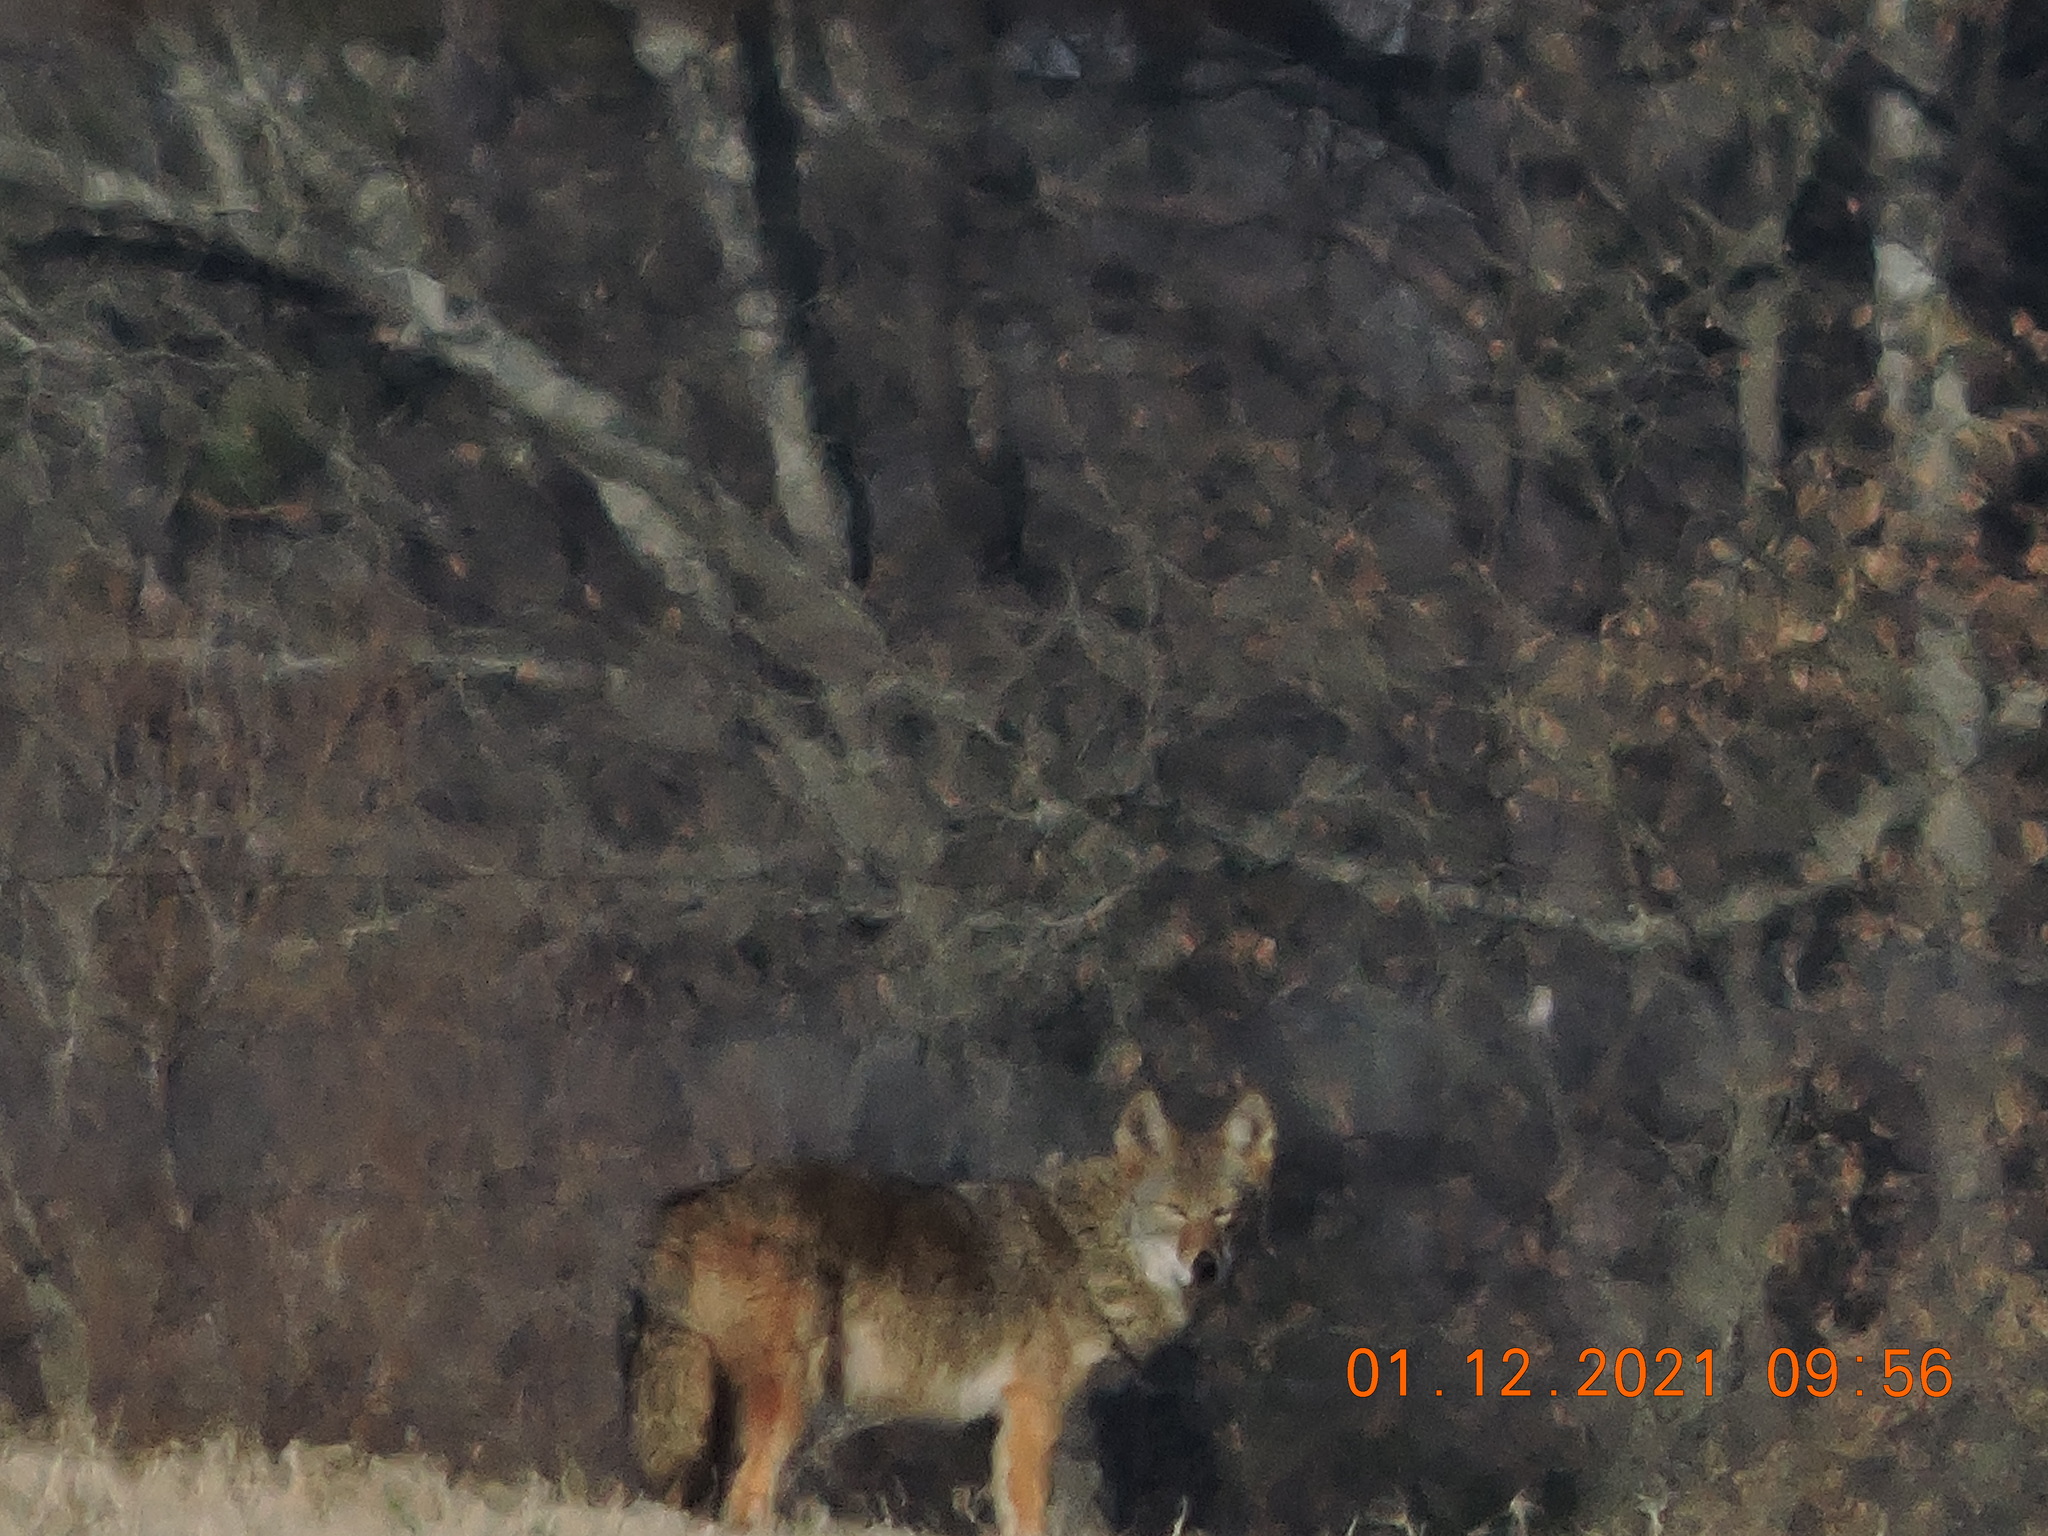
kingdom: Animalia
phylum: Chordata
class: Mammalia
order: Carnivora
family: Canidae
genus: Canis
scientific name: Canis latrans
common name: Coyote
